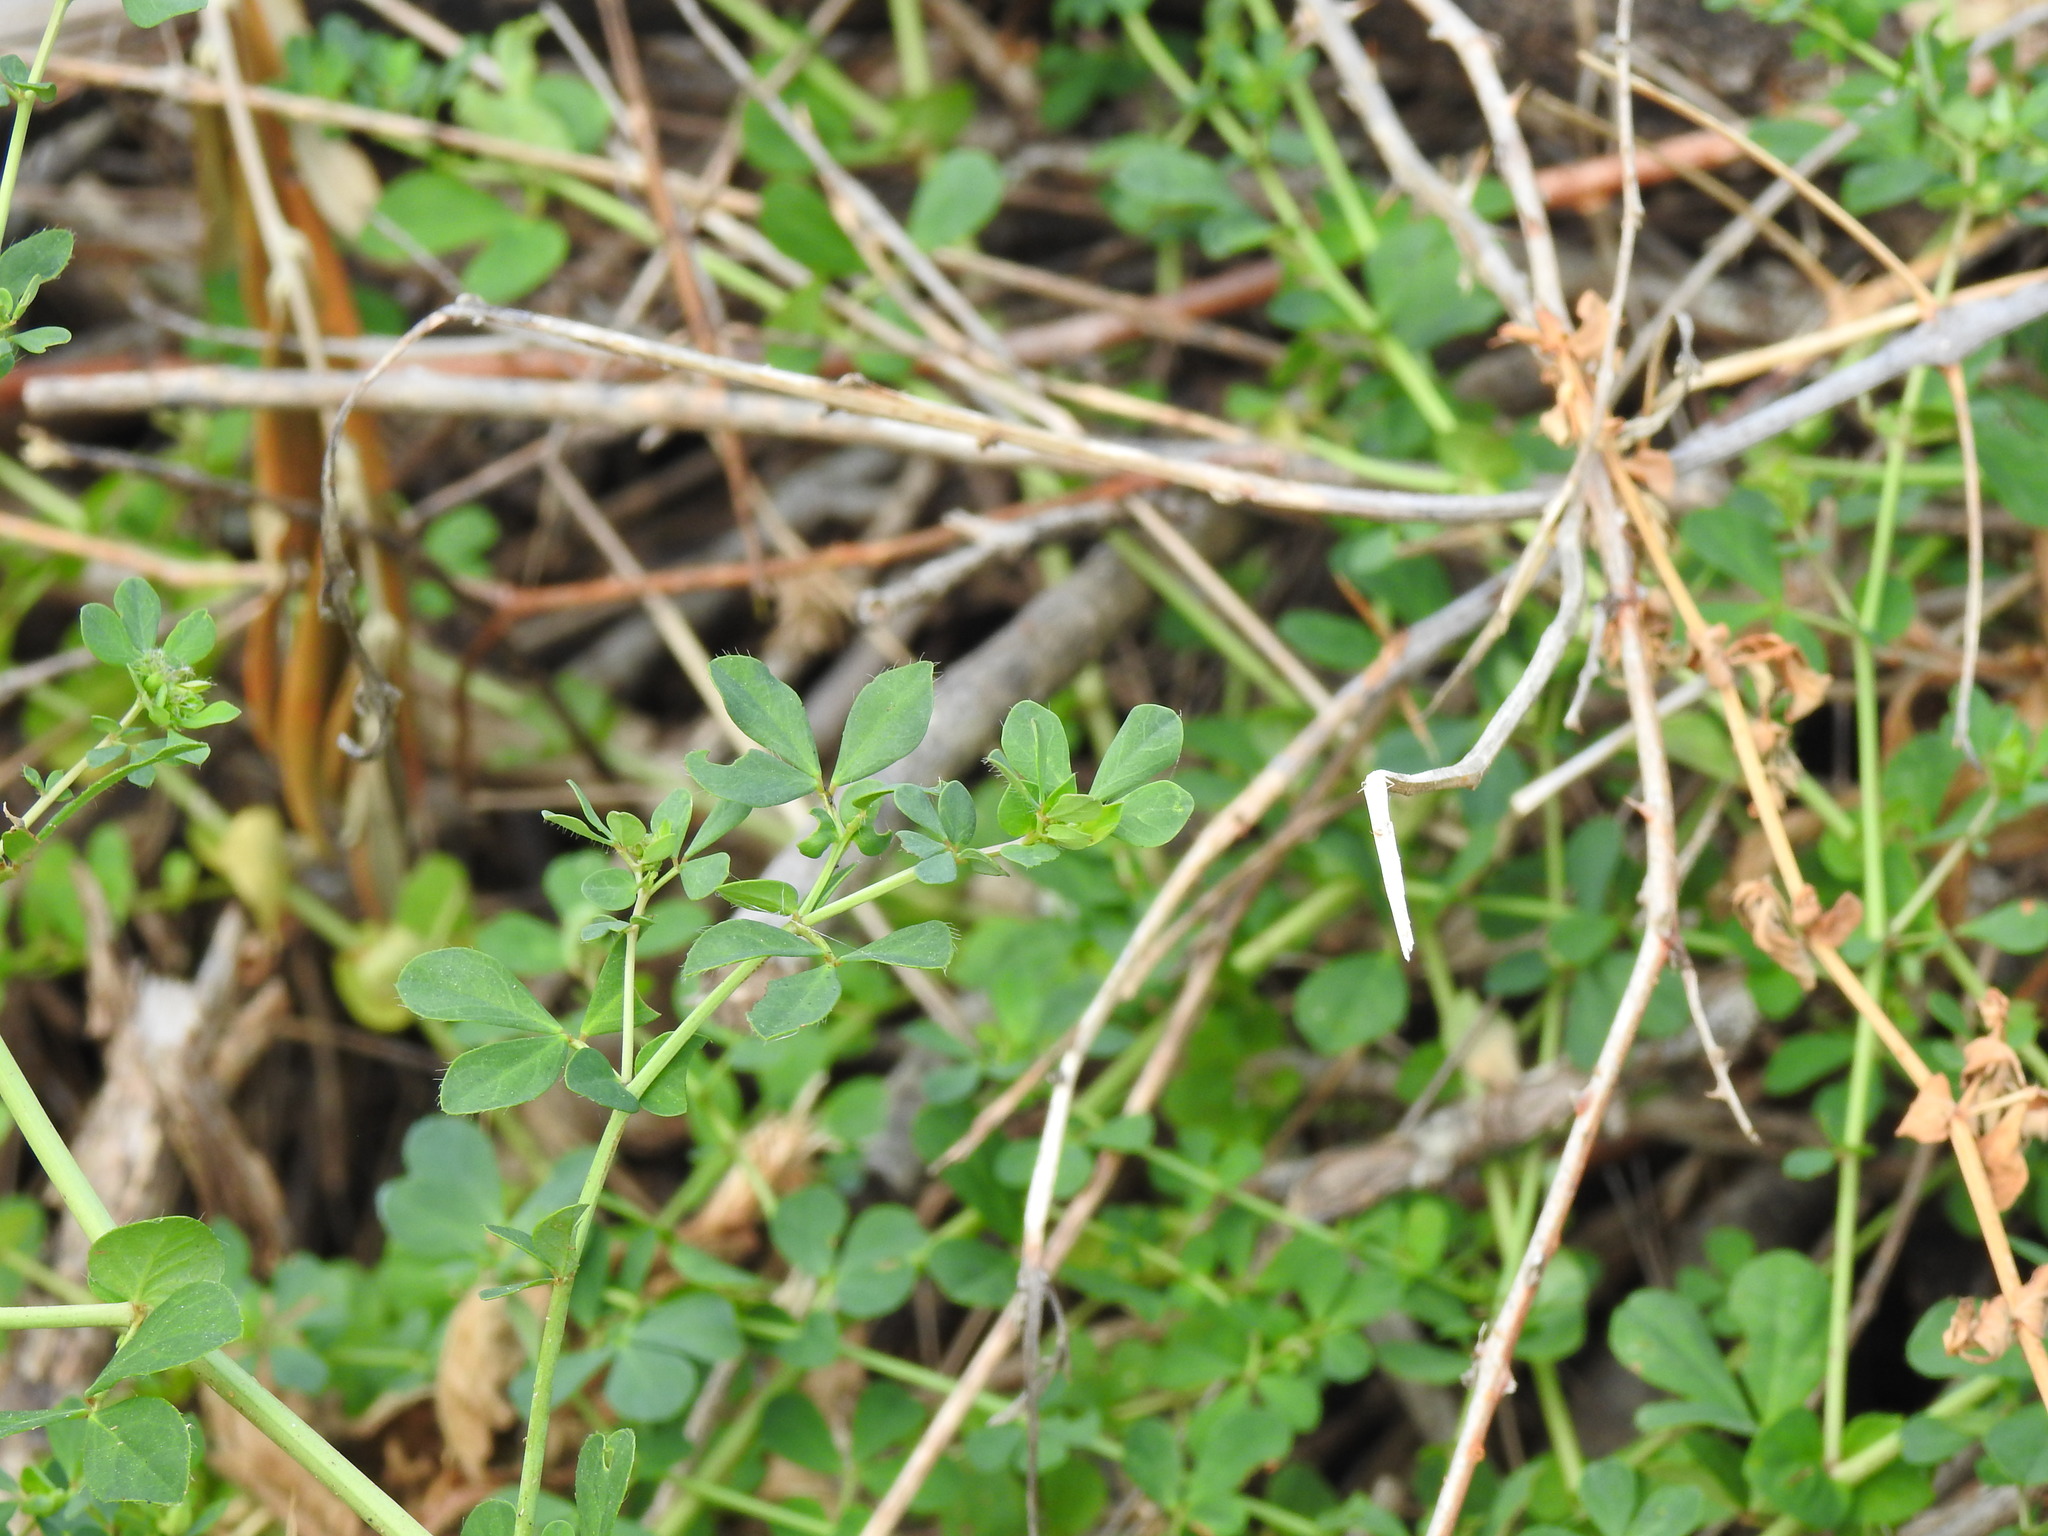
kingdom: Plantae
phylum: Tracheophyta
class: Magnoliopsida
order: Fabales
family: Fabaceae
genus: Lotus
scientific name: Lotus pedunculatus
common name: Greater birdsfoot-trefoil
